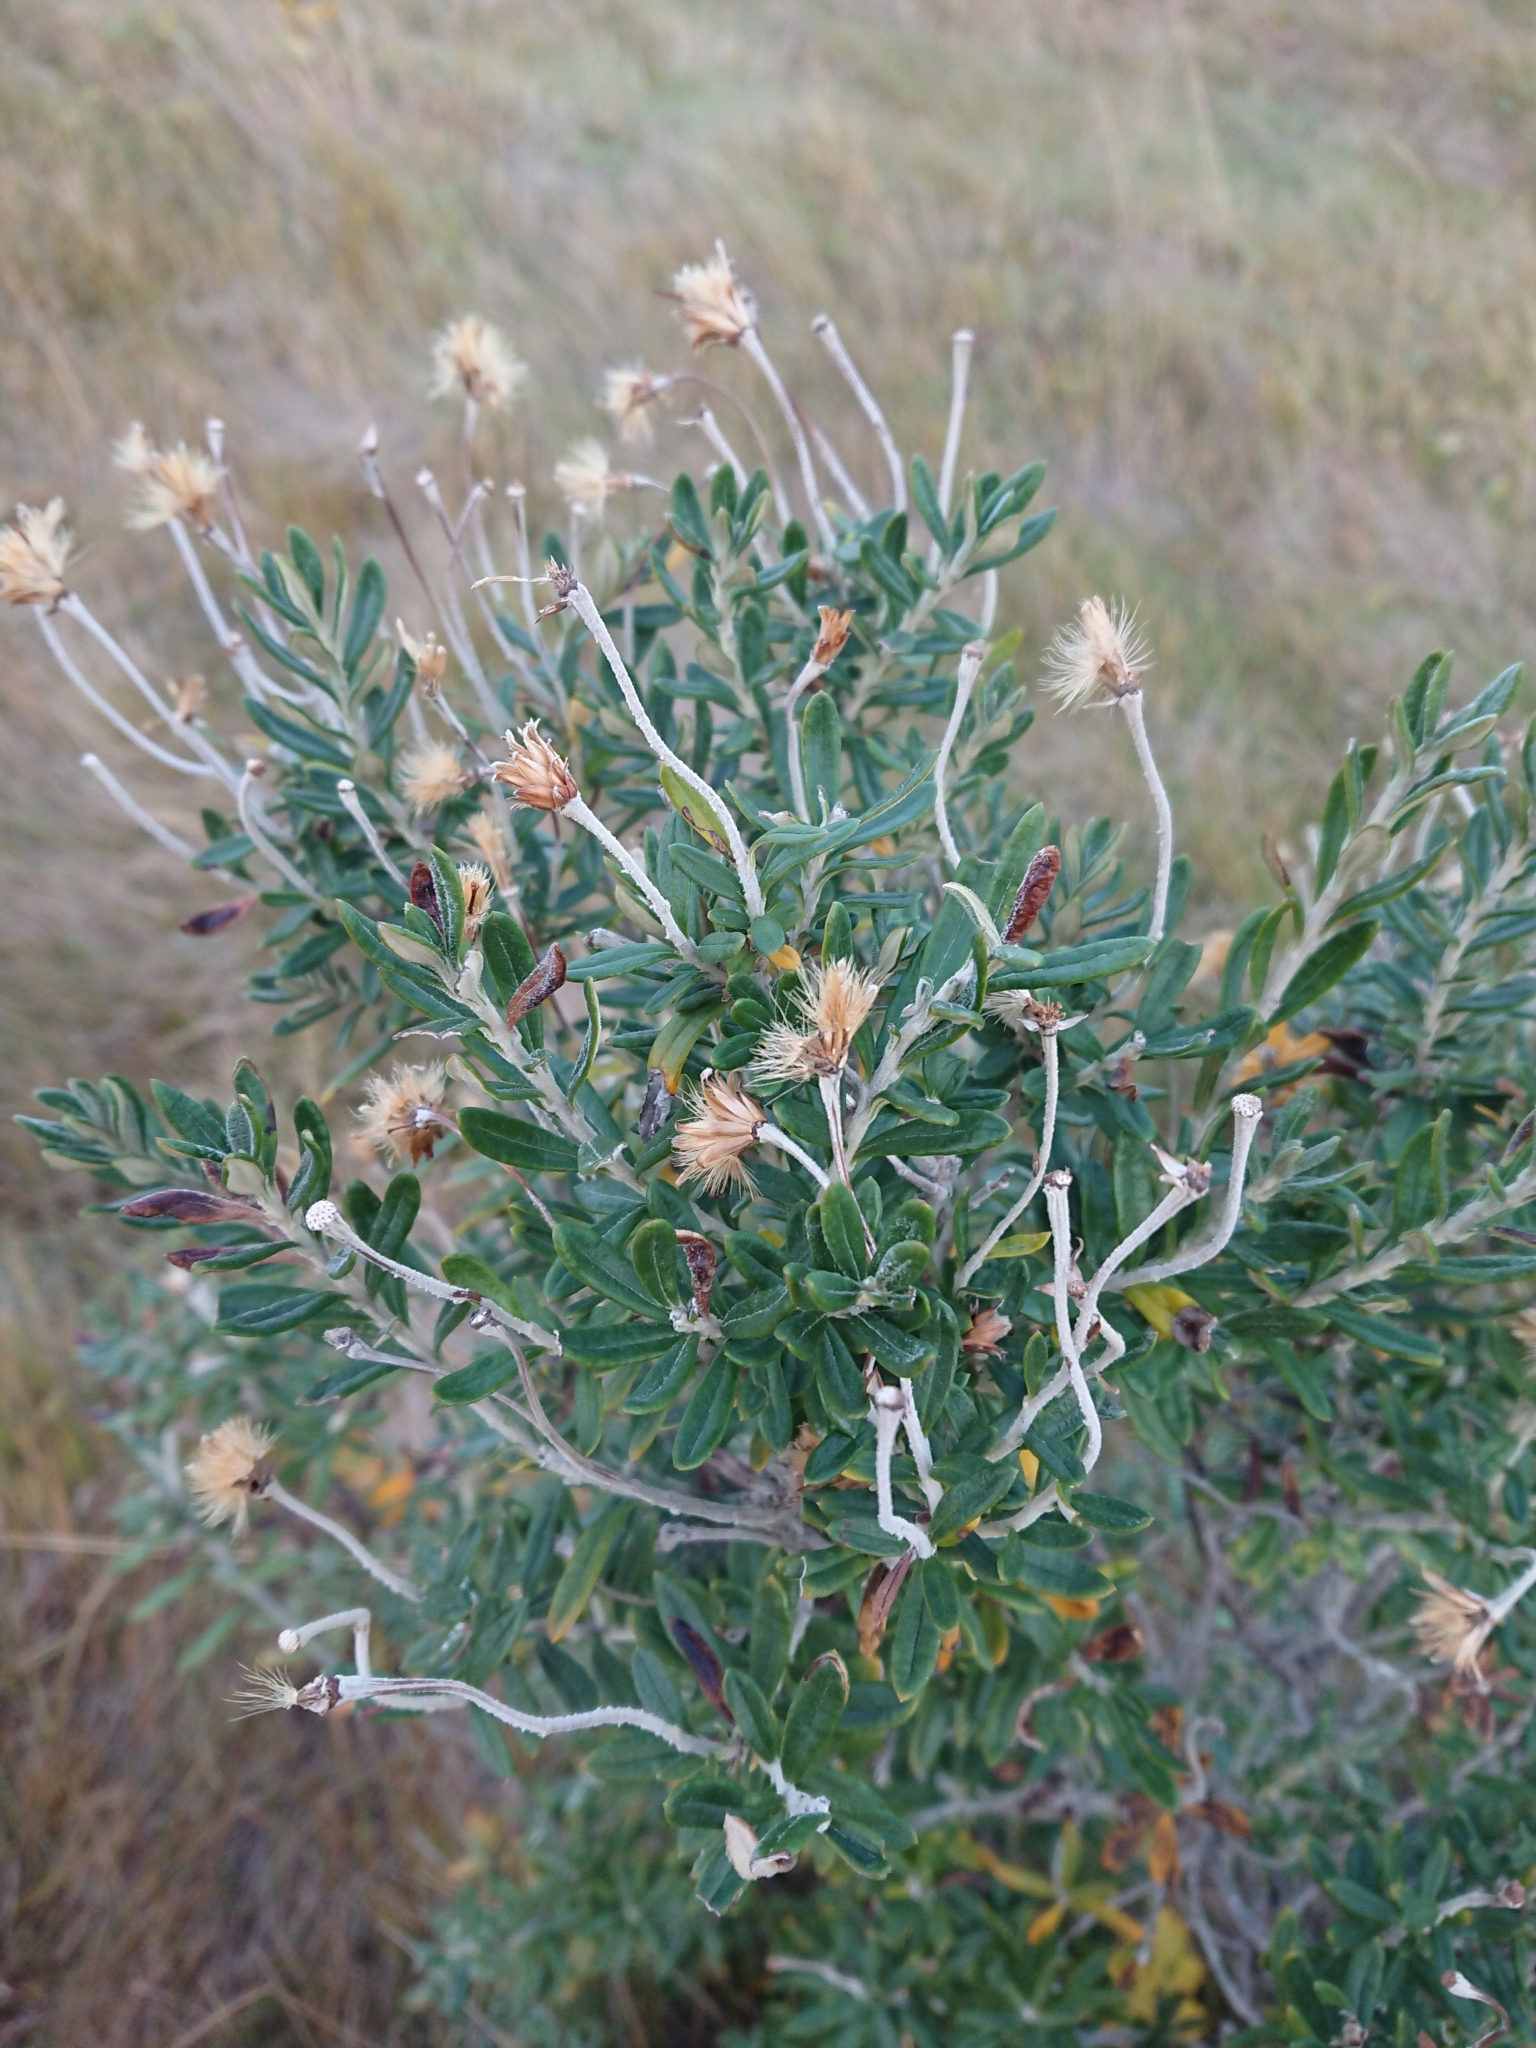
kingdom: Plantae
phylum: Tracheophyta
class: Magnoliopsida
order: Asterales
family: Asteraceae
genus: Chiliotrichum
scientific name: Chiliotrichum diffusum
